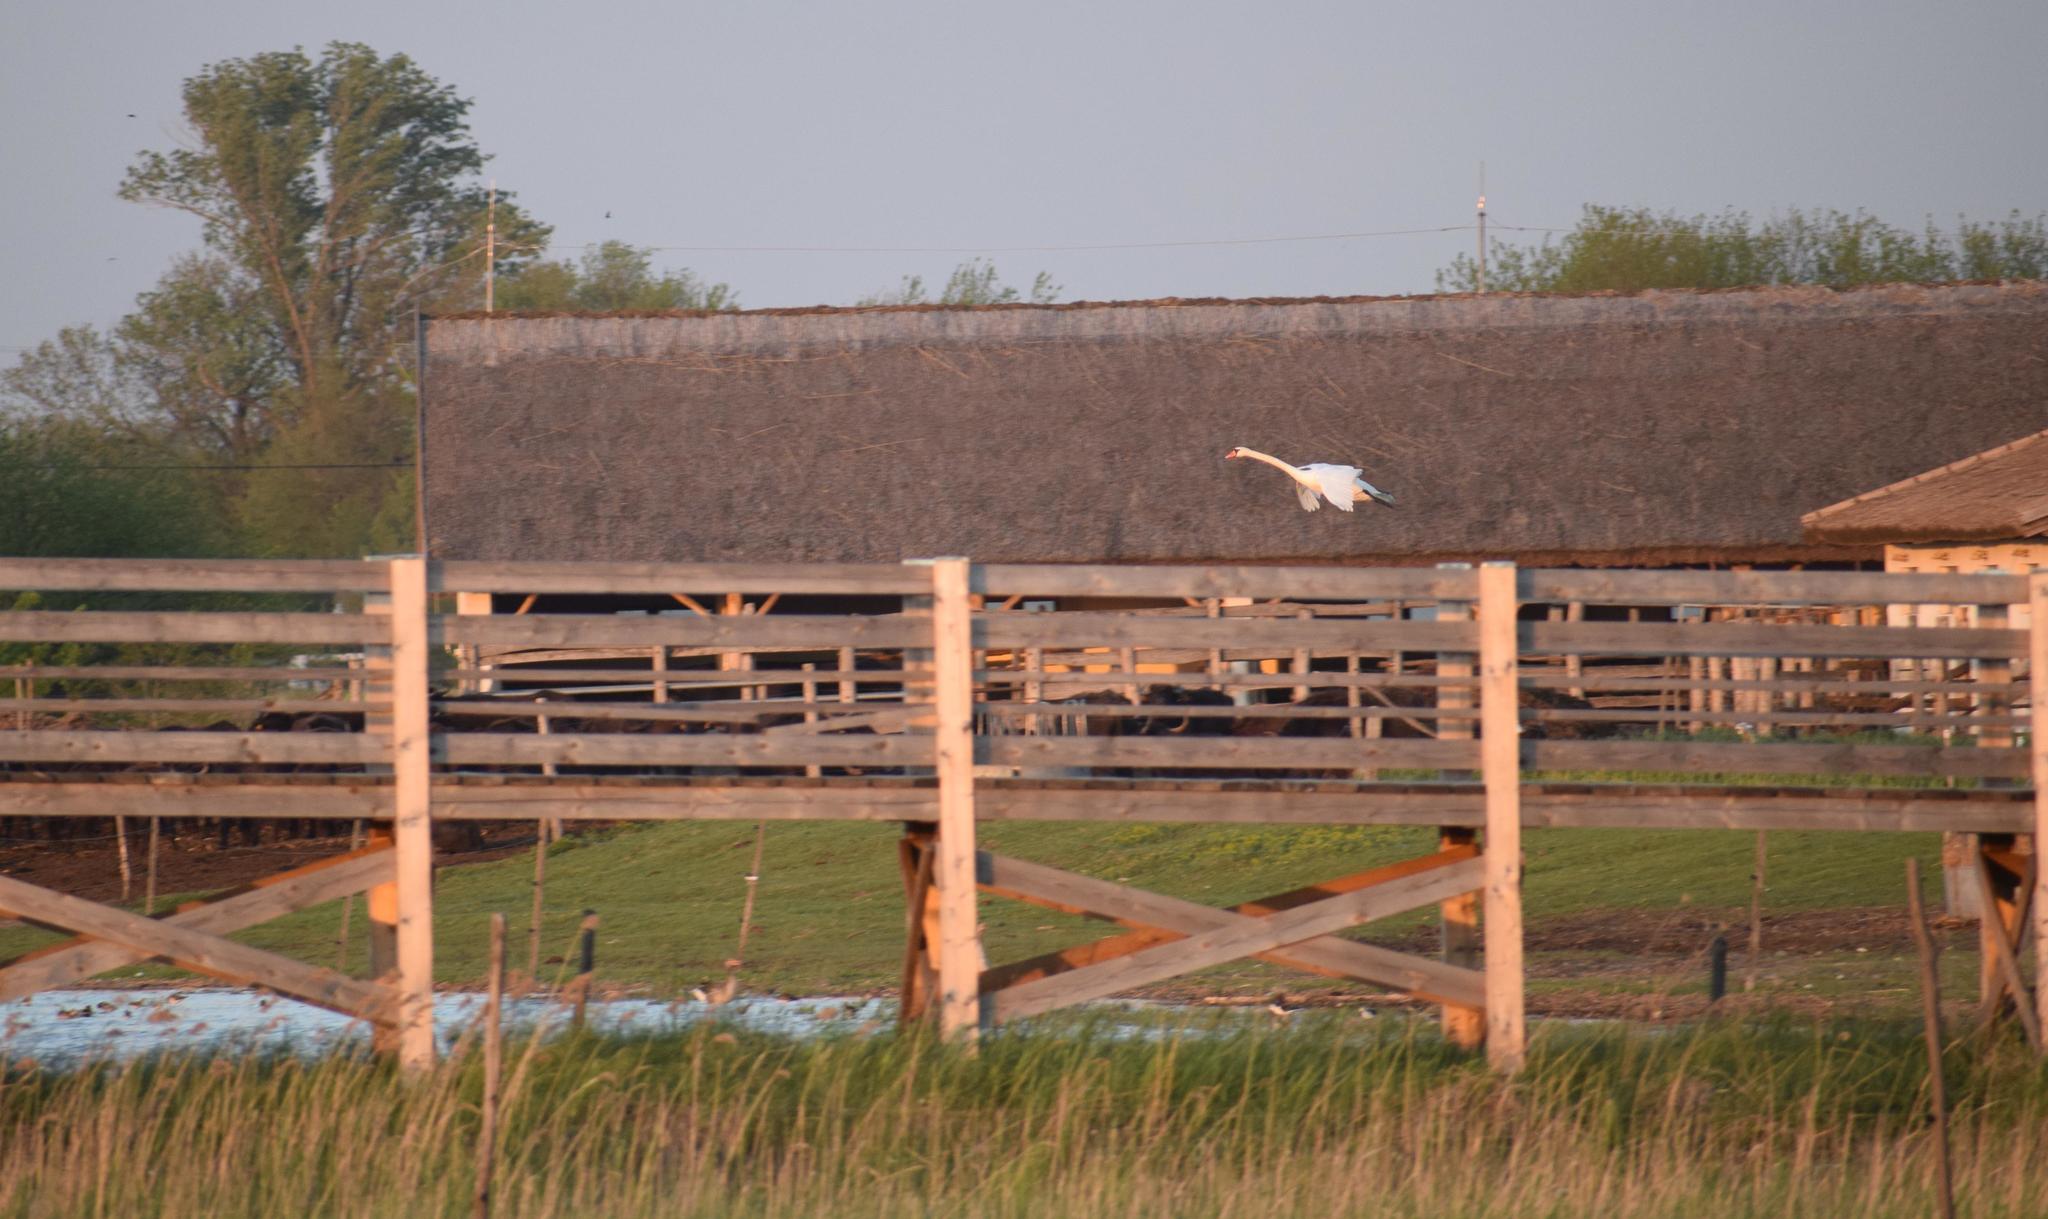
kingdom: Animalia
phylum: Chordata
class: Aves
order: Anseriformes
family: Anatidae
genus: Cygnus
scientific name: Cygnus olor
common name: Mute swan
